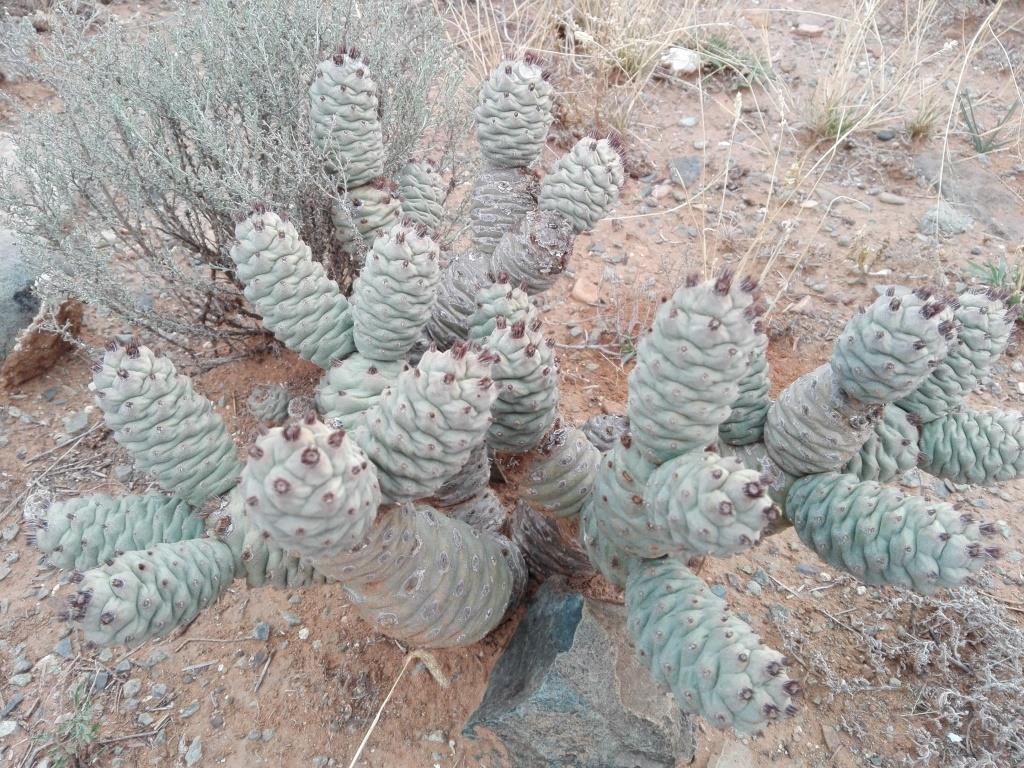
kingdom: Plantae
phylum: Tracheophyta
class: Magnoliopsida
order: Caryophyllales
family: Cactaceae
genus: Tephrocactus
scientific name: Tephrocactus articulatus
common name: Paper cactus
